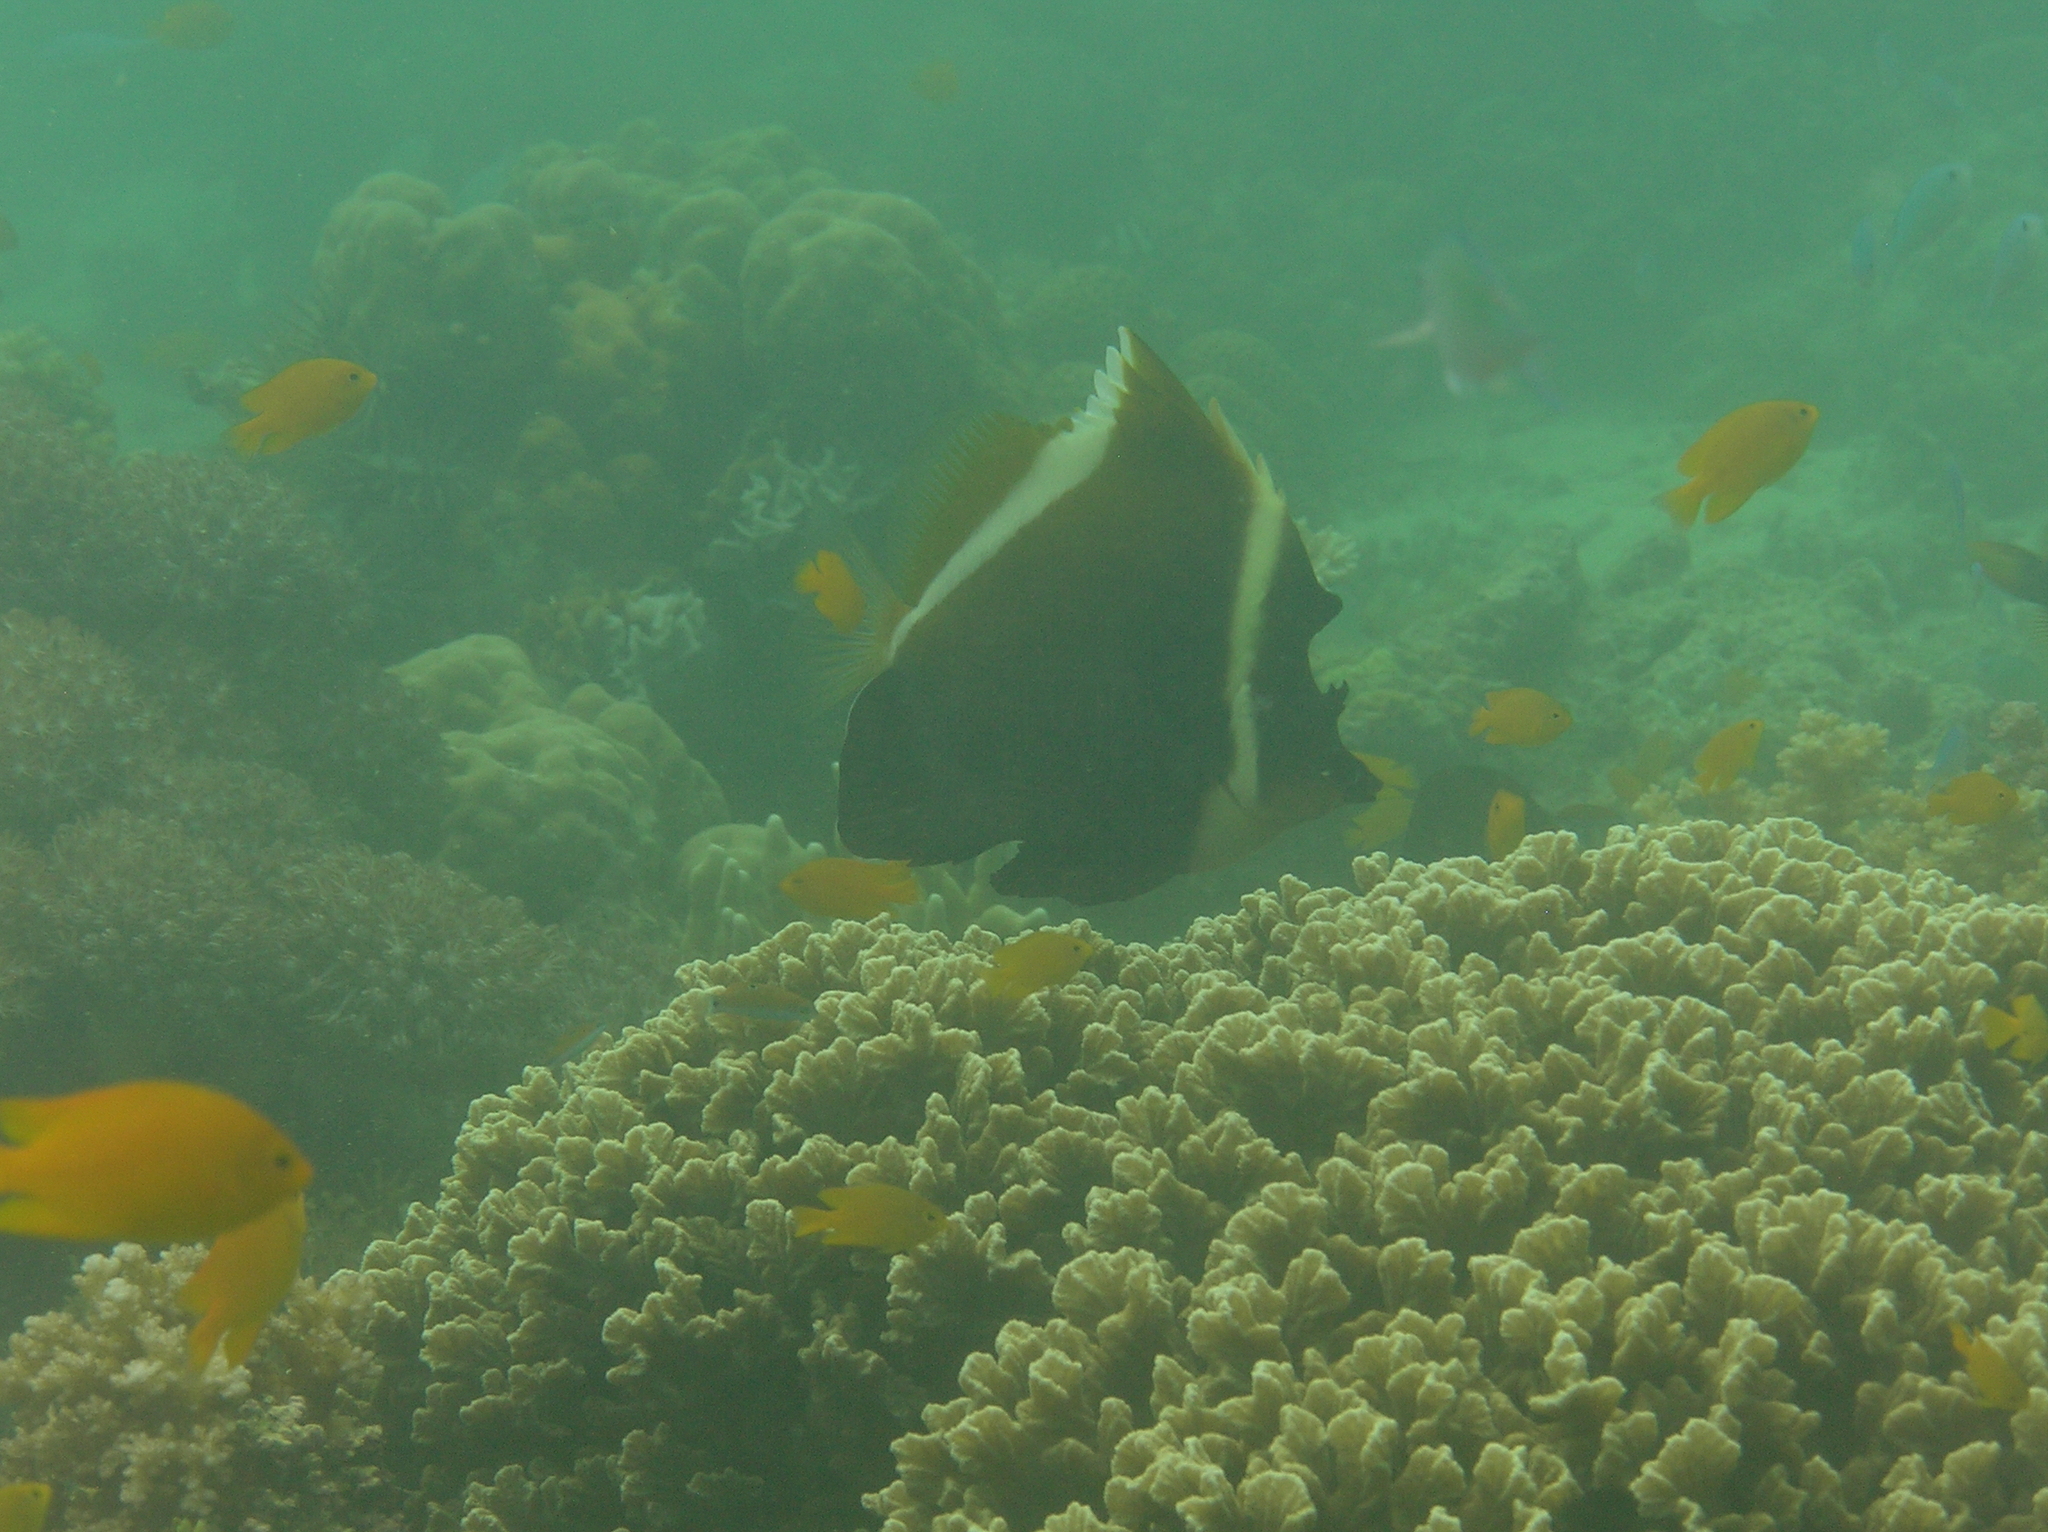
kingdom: Animalia
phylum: Chordata
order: Perciformes
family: Chaetodontidae
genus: Heniochus
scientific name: Heniochus varius
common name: Horned bannerfish
